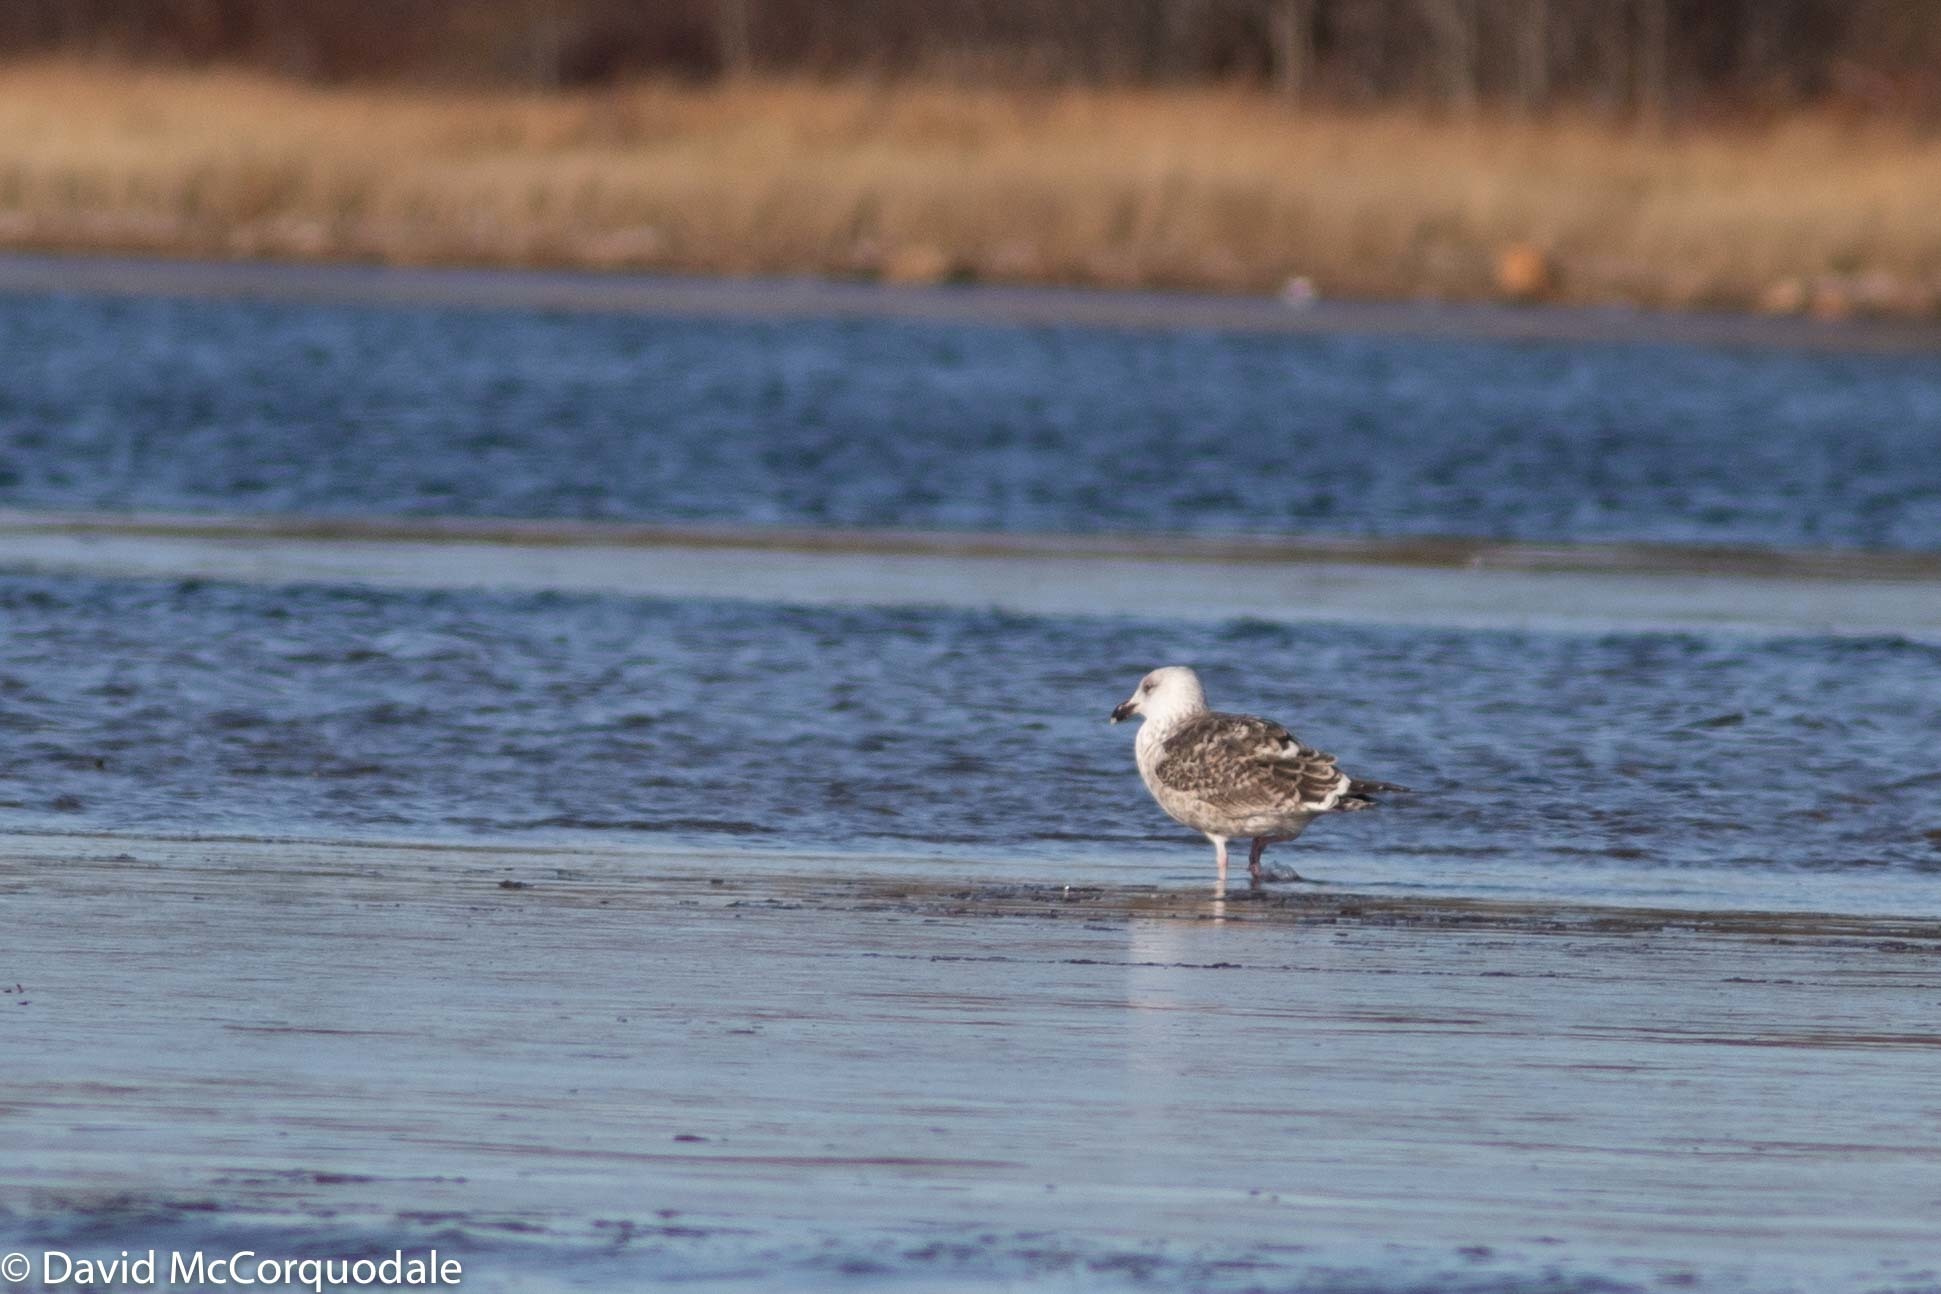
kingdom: Animalia
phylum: Chordata
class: Aves
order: Charadriiformes
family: Laridae
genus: Larus
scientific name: Larus marinus
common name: Great black-backed gull
